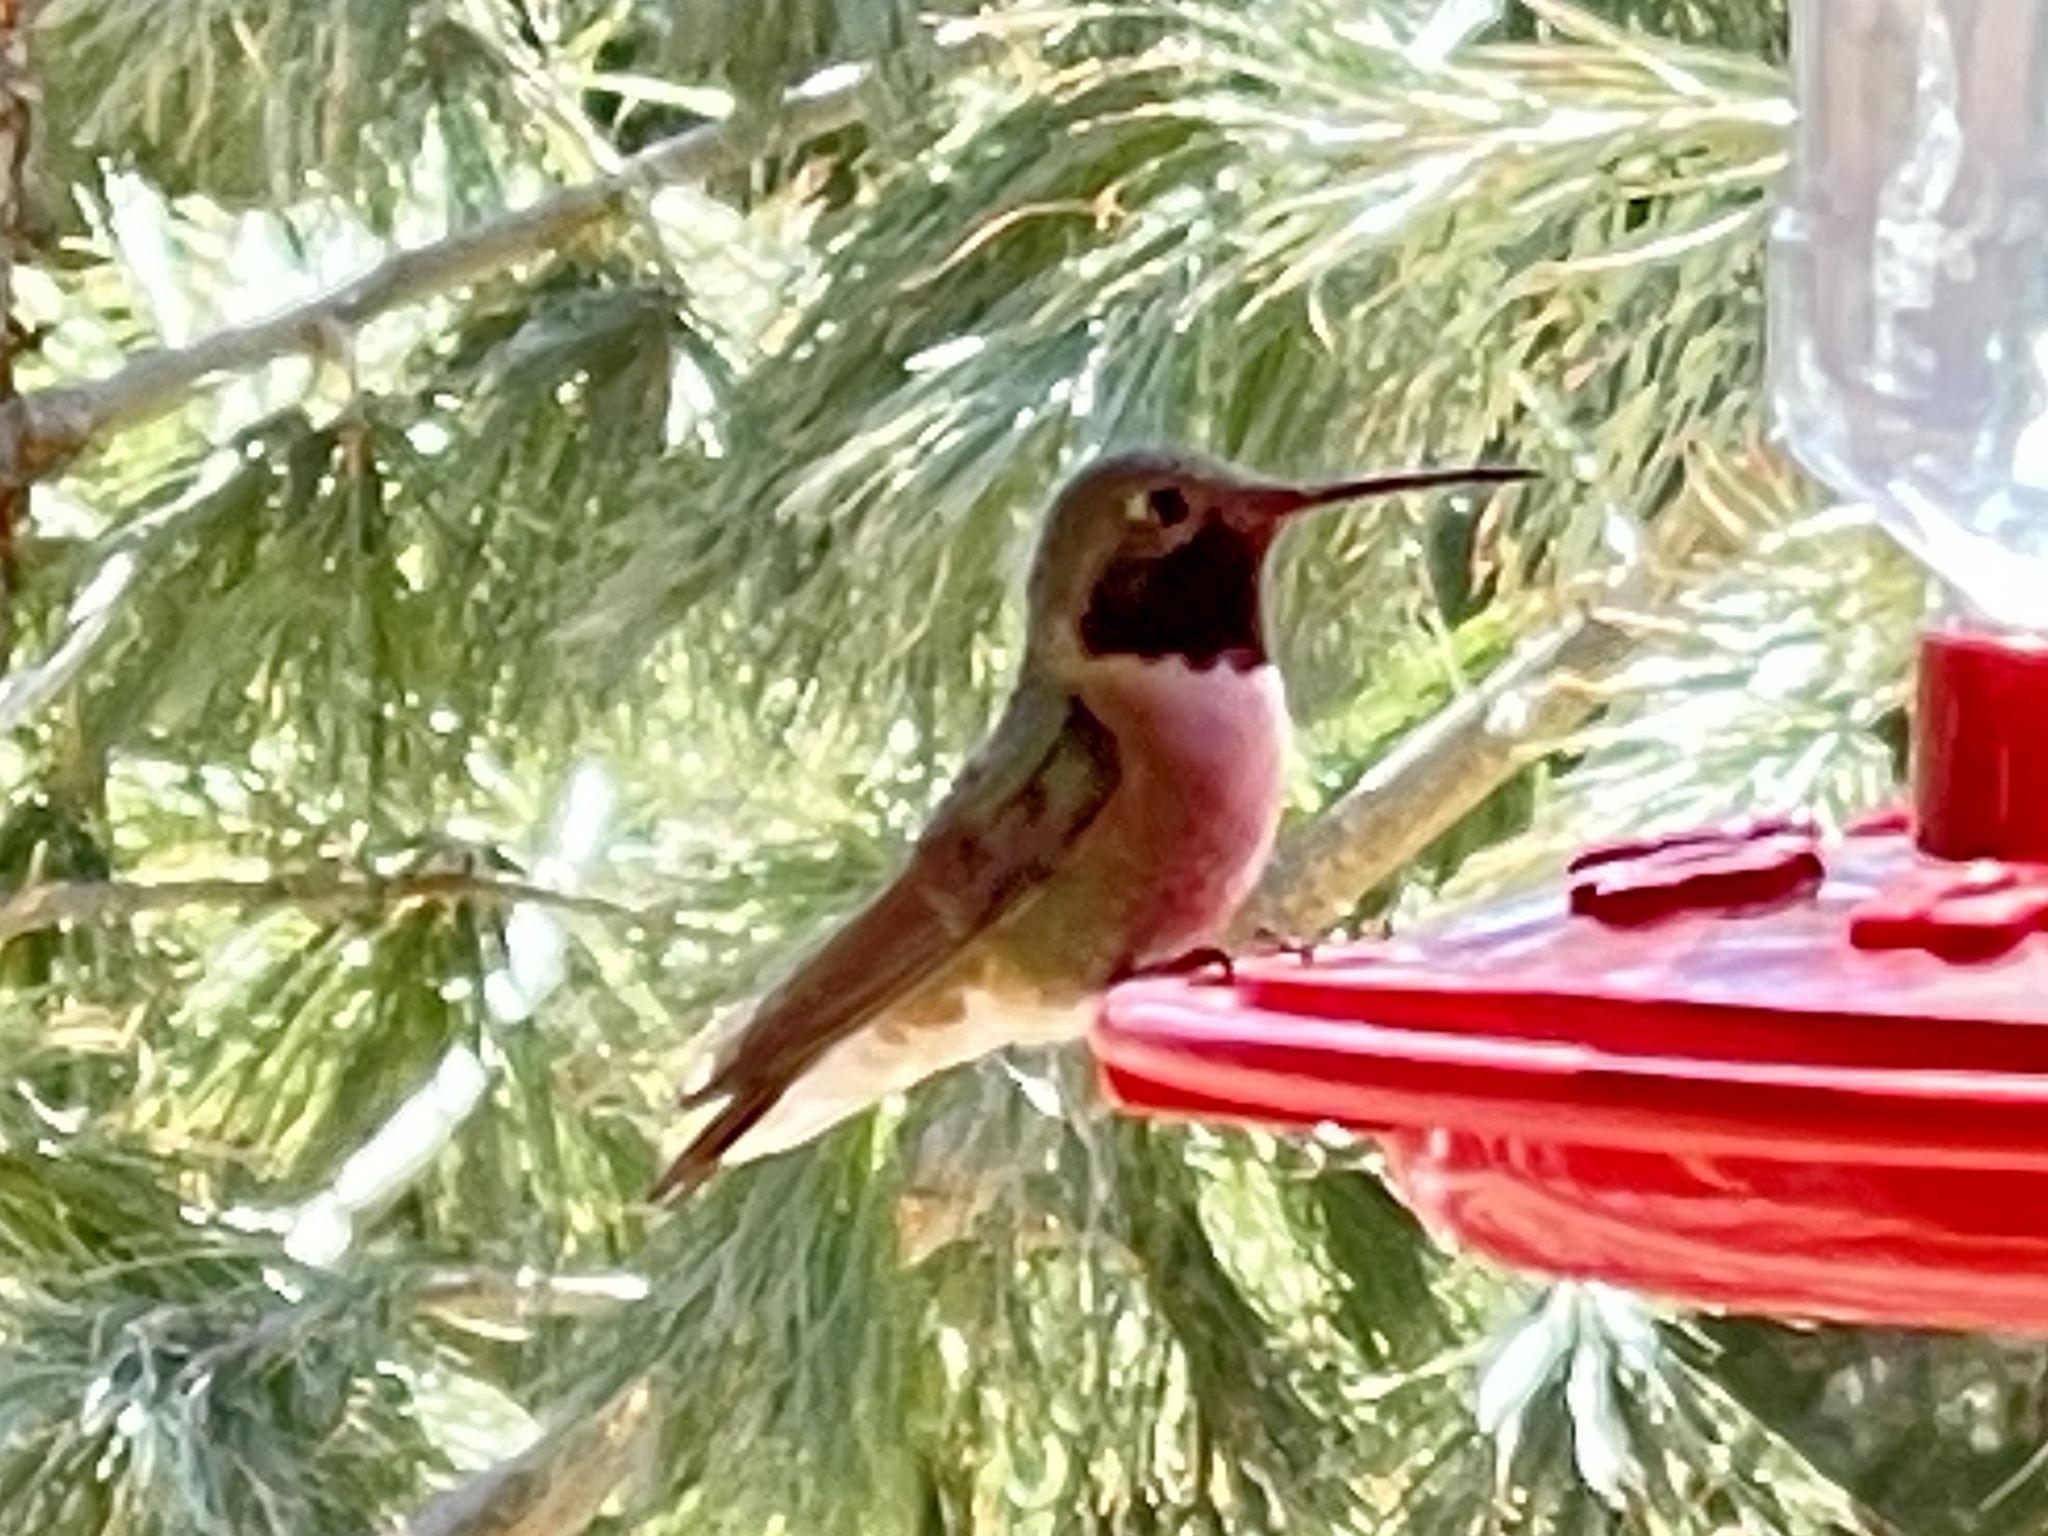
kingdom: Animalia
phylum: Chordata
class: Aves
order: Apodiformes
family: Trochilidae
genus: Selasphorus
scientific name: Selasphorus platycercus
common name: Broad-tailed hummingbird
